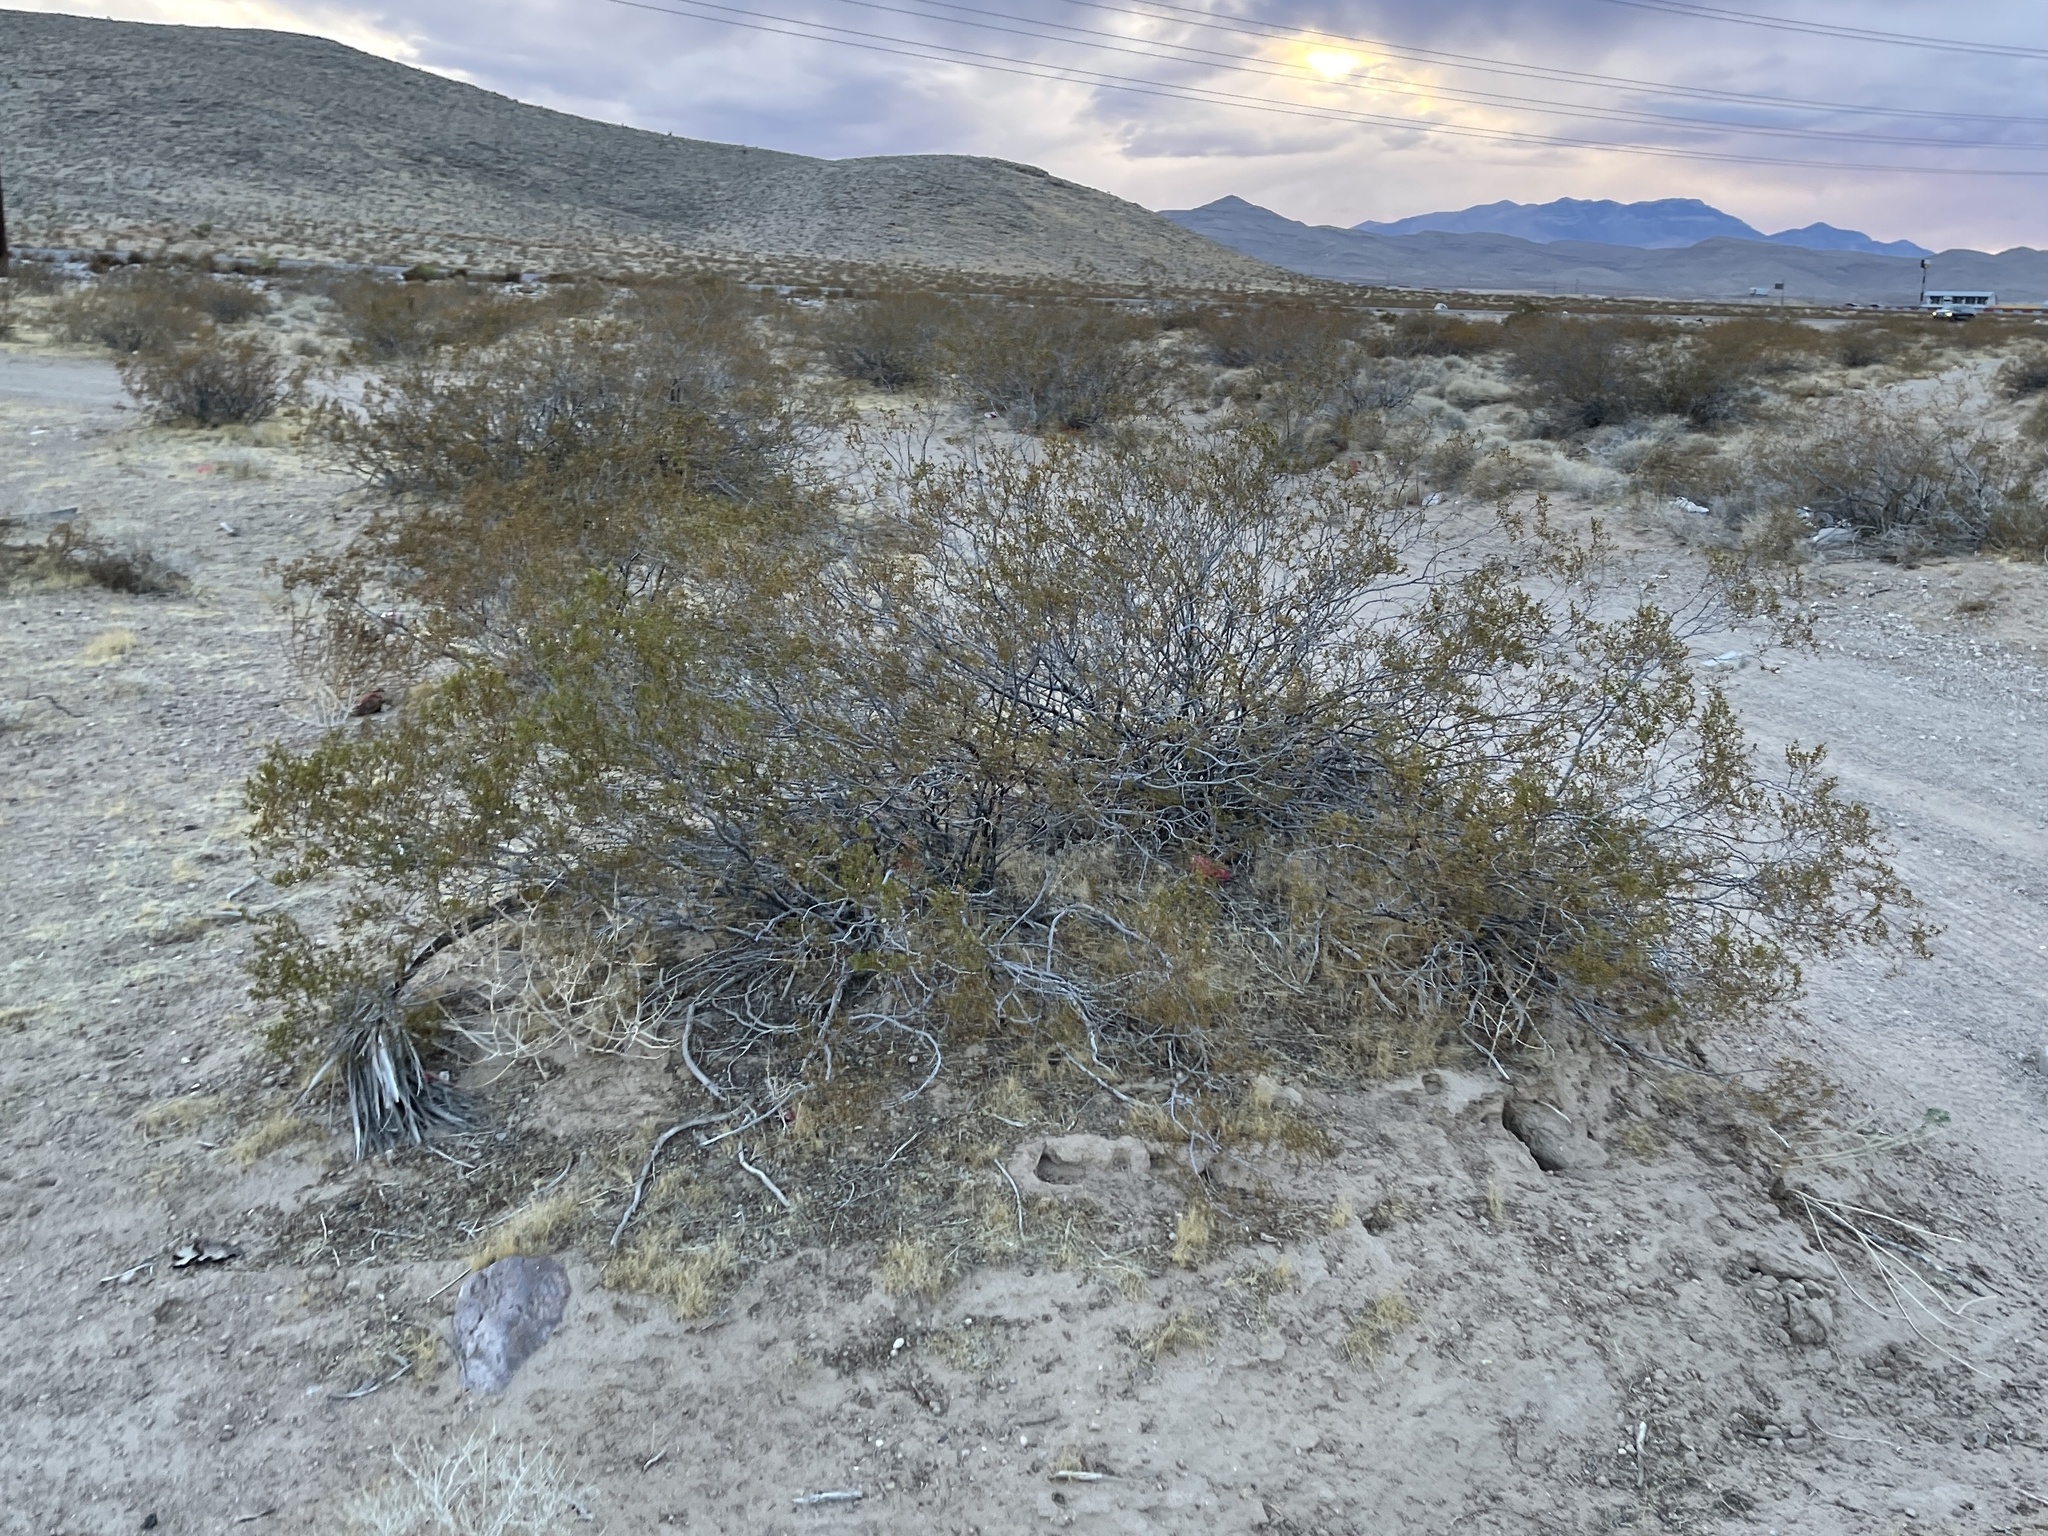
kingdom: Plantae
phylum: Tracheophyta
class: Magnoliopsida
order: Zygophyllales
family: Zygophyllaceae
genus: Larrea
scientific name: Larrea tridentata
